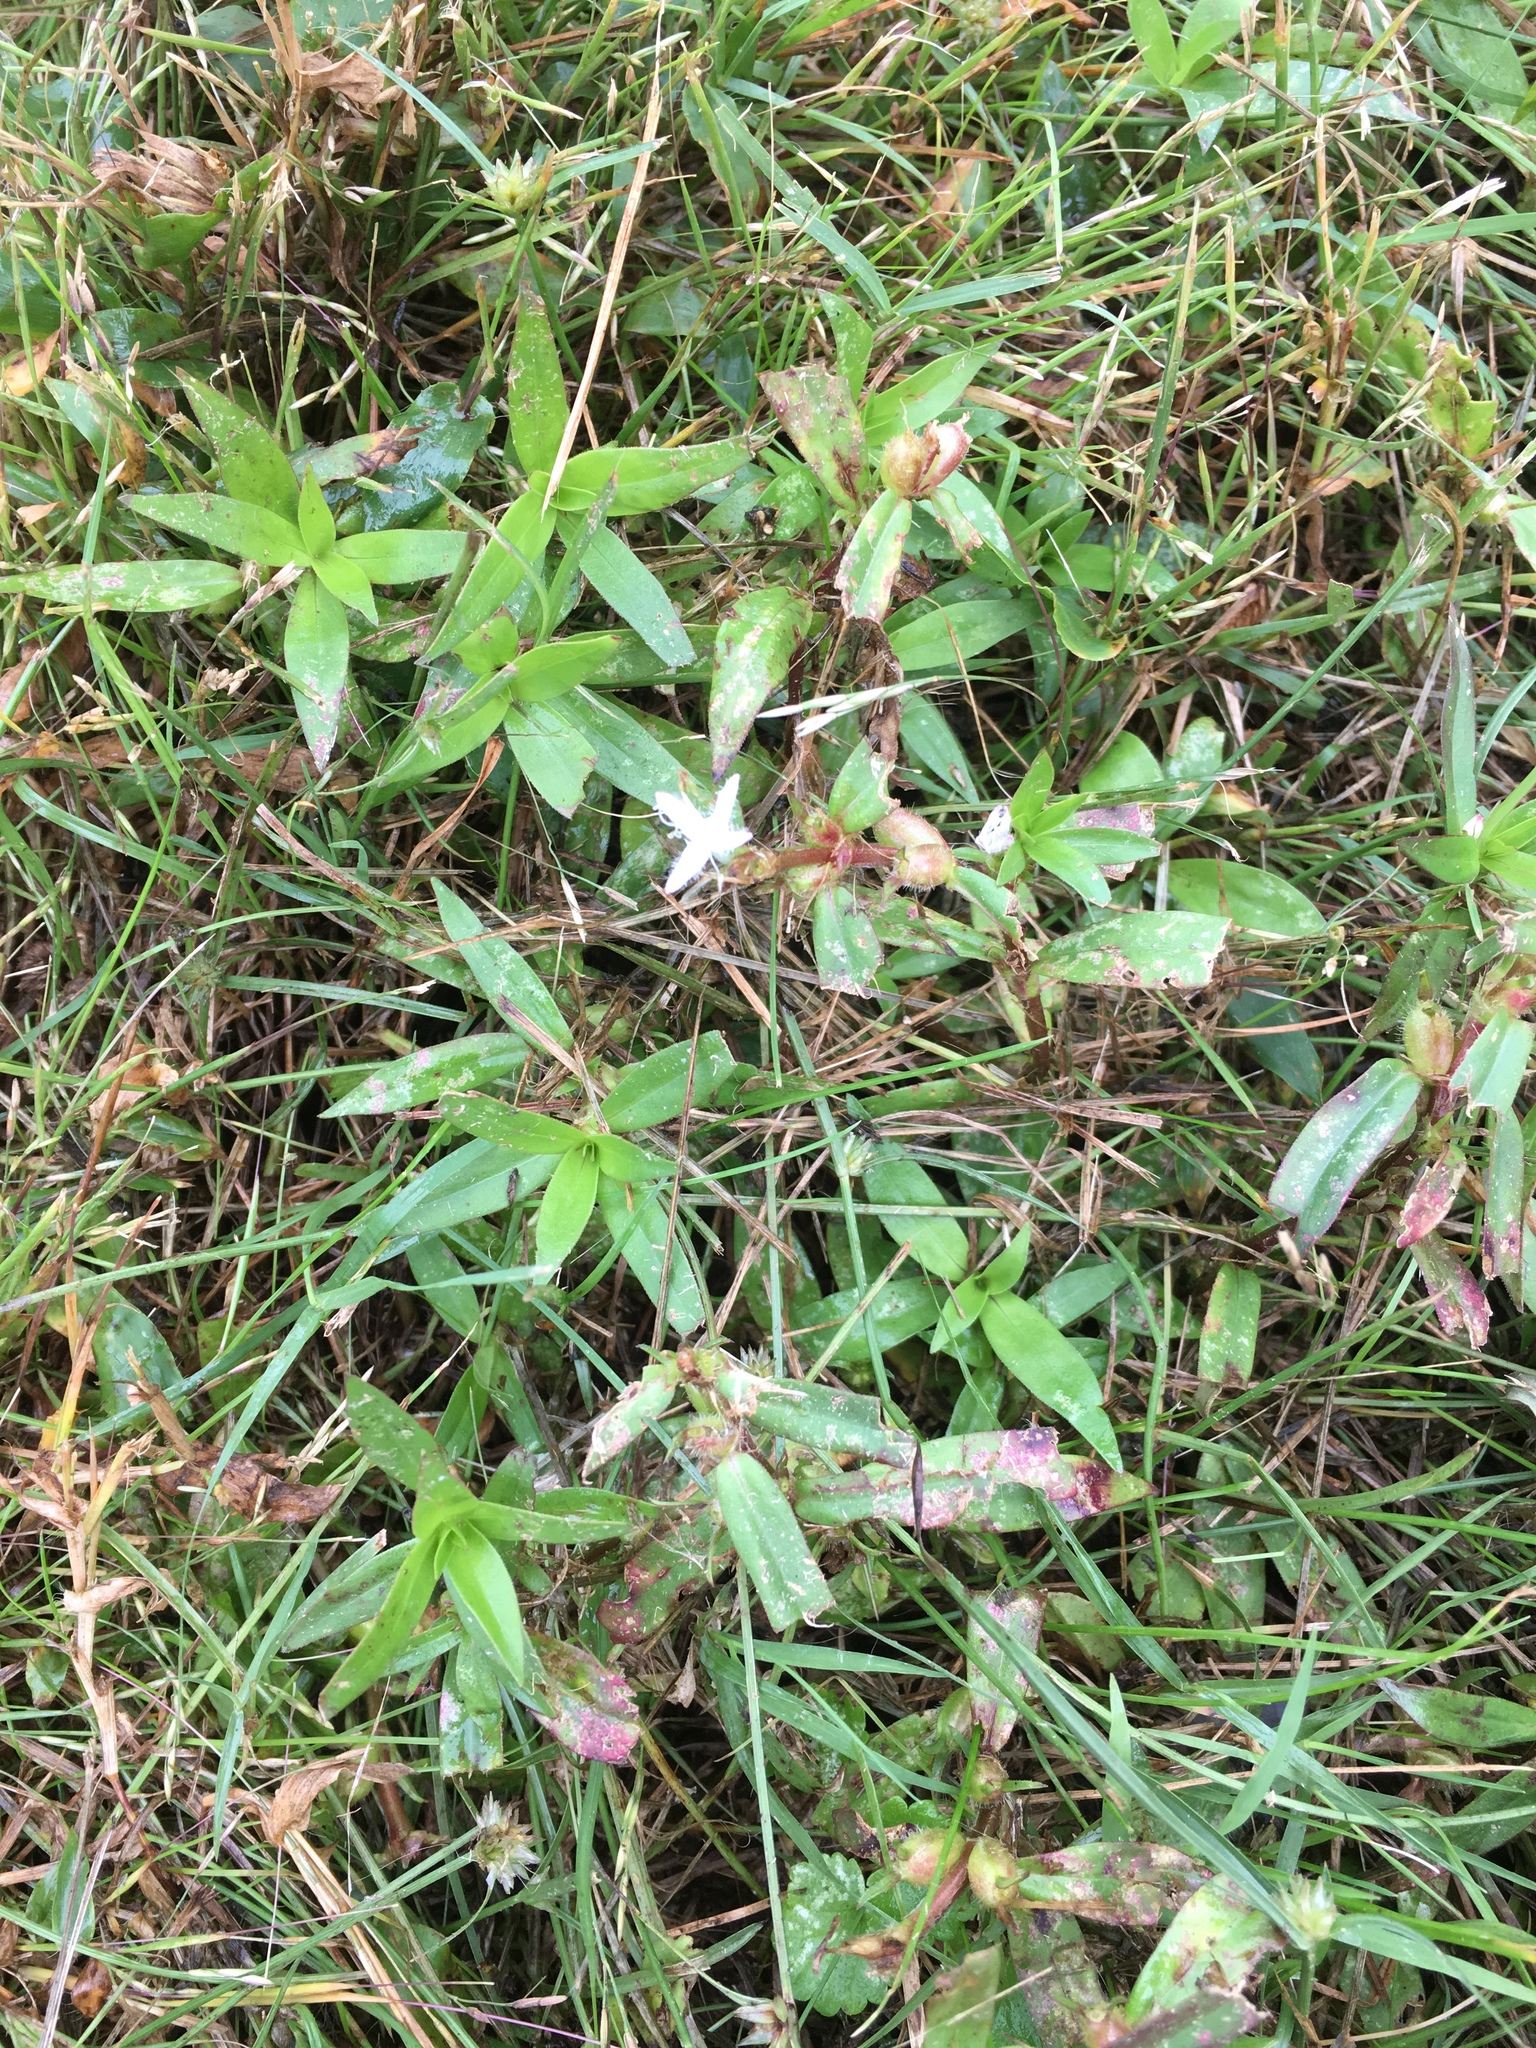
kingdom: Plantae
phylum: Tracheophyta
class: Magnoliopsida
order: Gentianales
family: Rubiaceae
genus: Diodia
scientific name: Diodia virginiana
